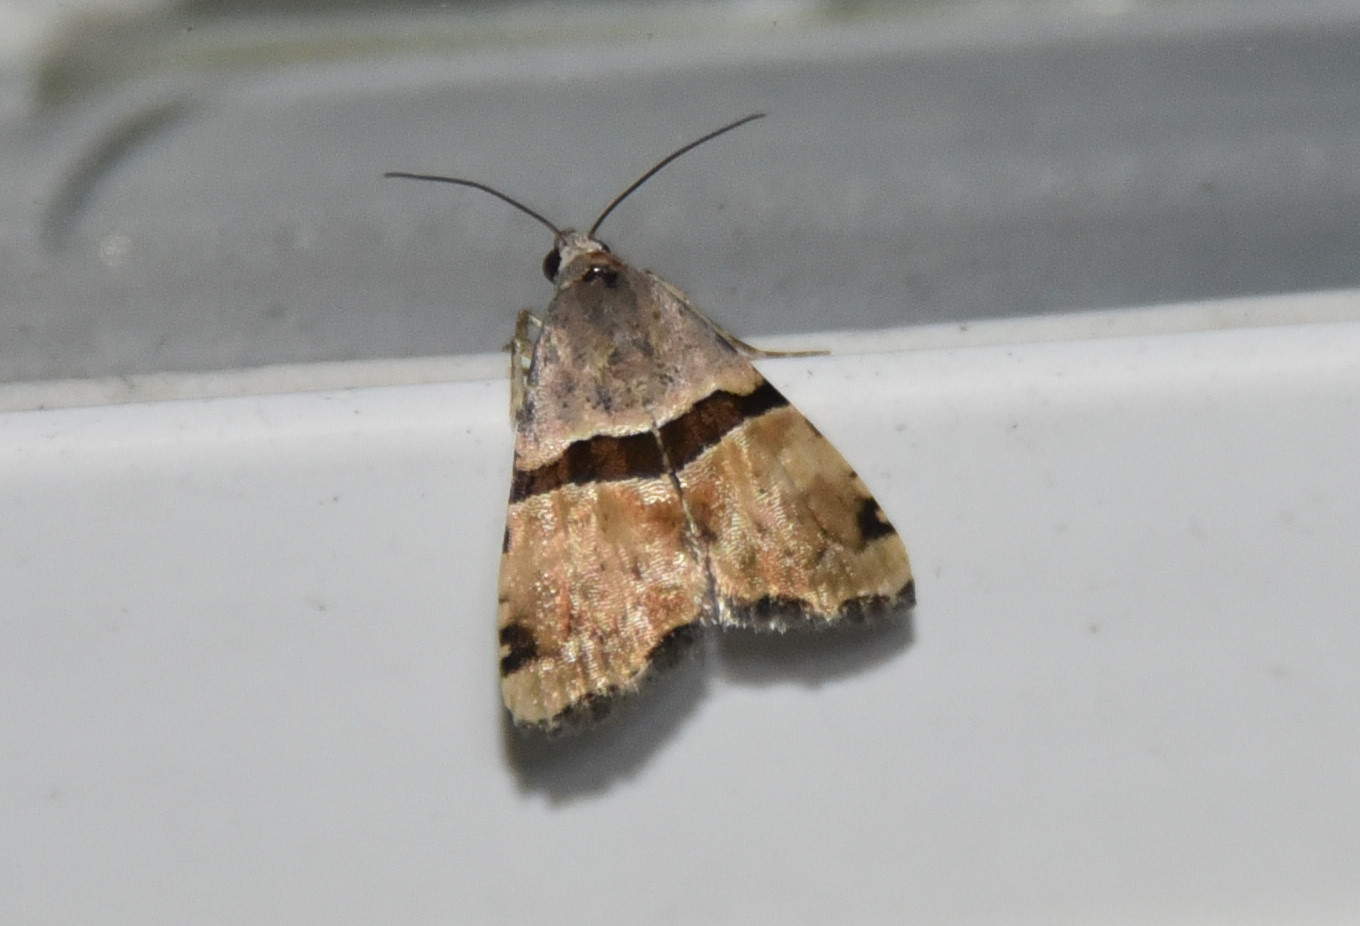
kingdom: Animalia
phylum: Arthropoda
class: Insecta
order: Lepidoptera
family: Noctuidae
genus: Cobubatha
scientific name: Cobubatha lixiva
